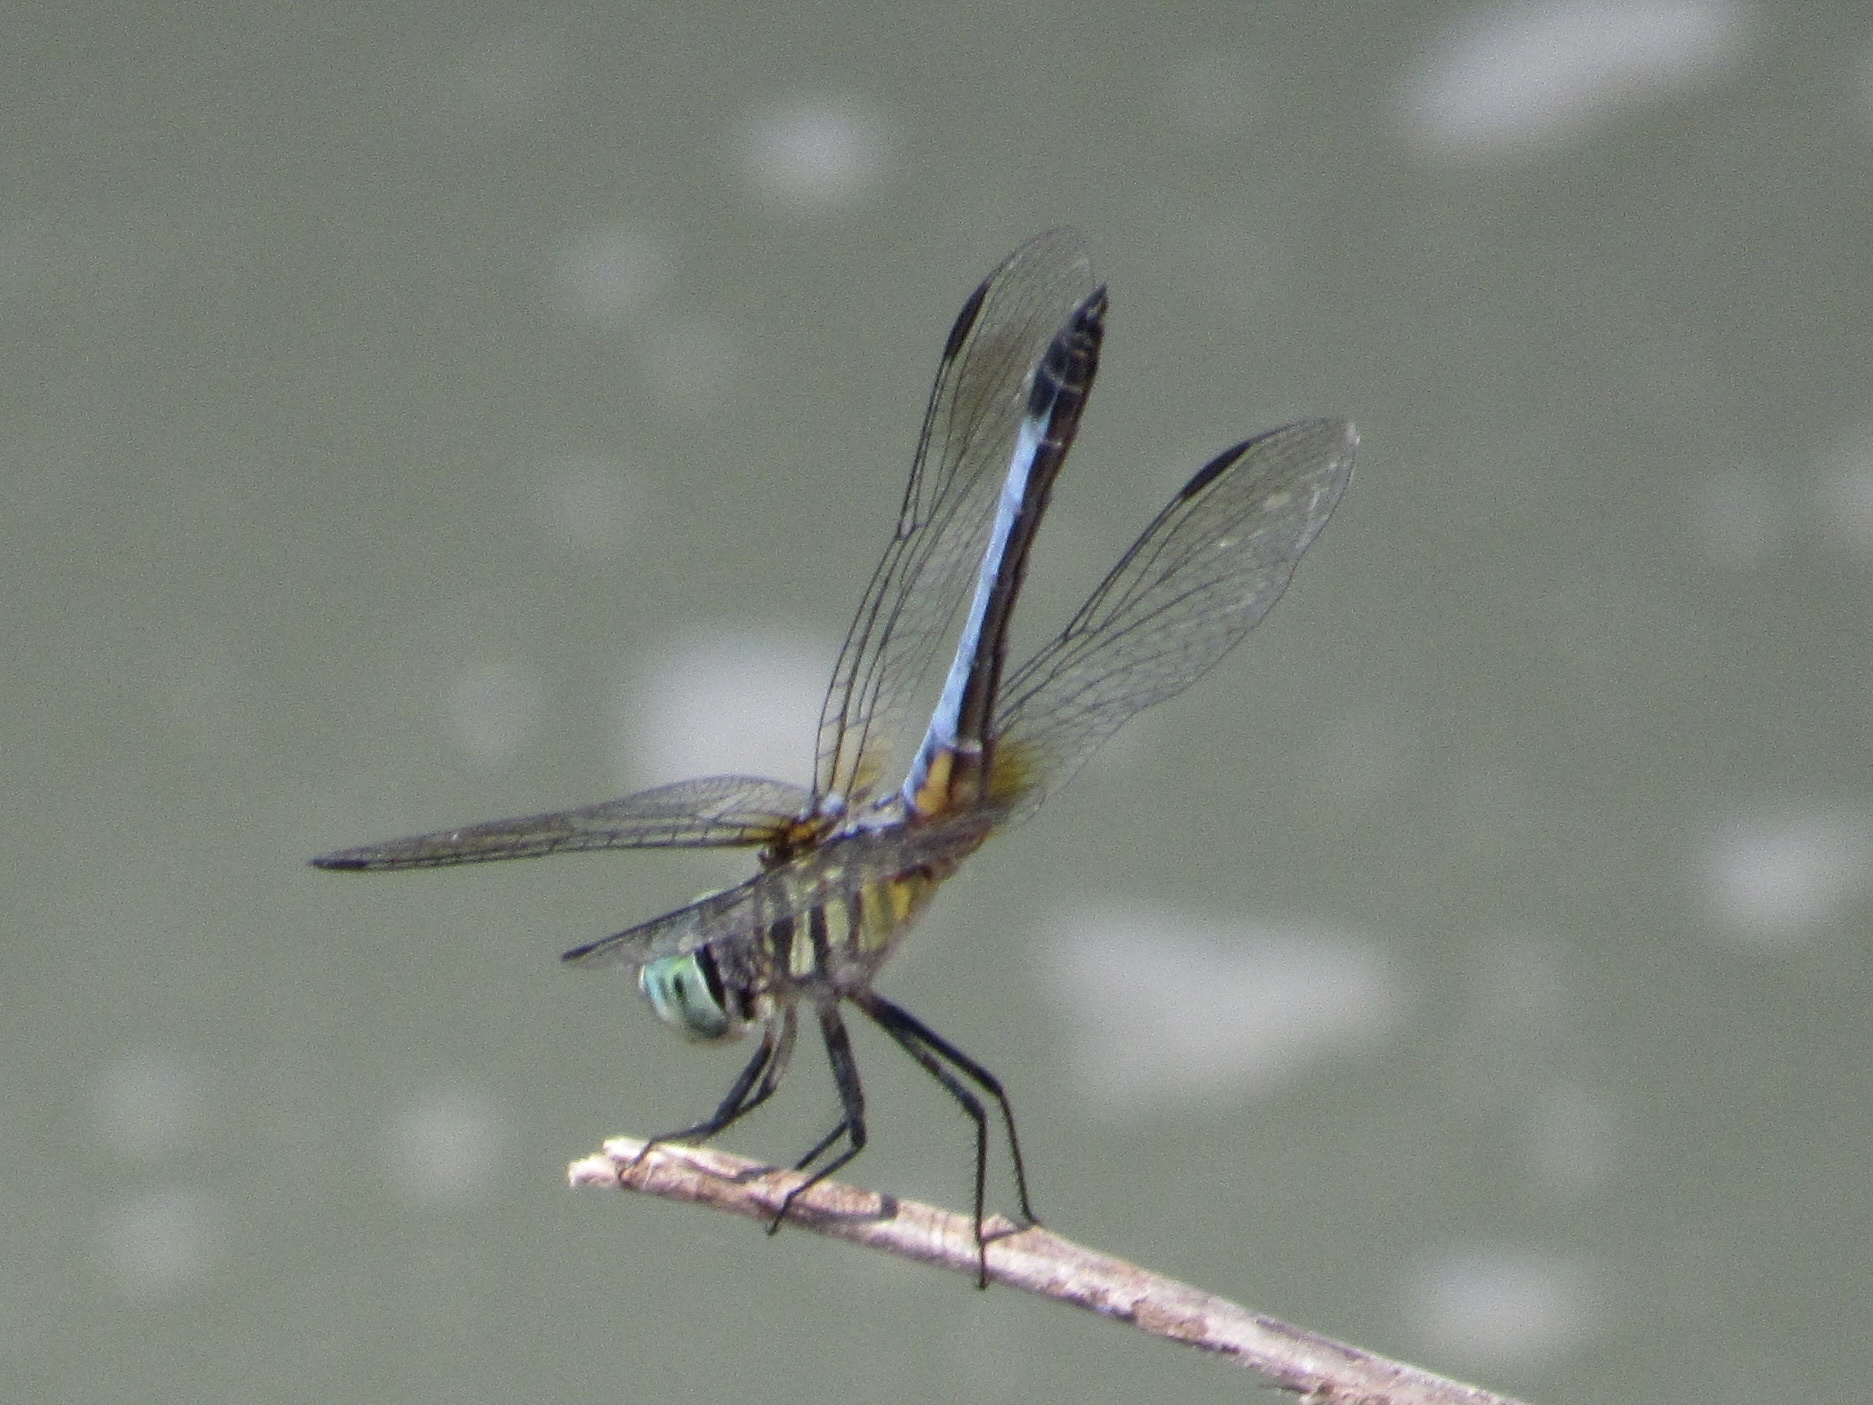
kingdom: Animalia
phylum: Arthropoda
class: Insecta
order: Odonata
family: Libellulidae
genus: Pachydiplax
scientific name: Pachydiplax longipennis
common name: Blue dasher
